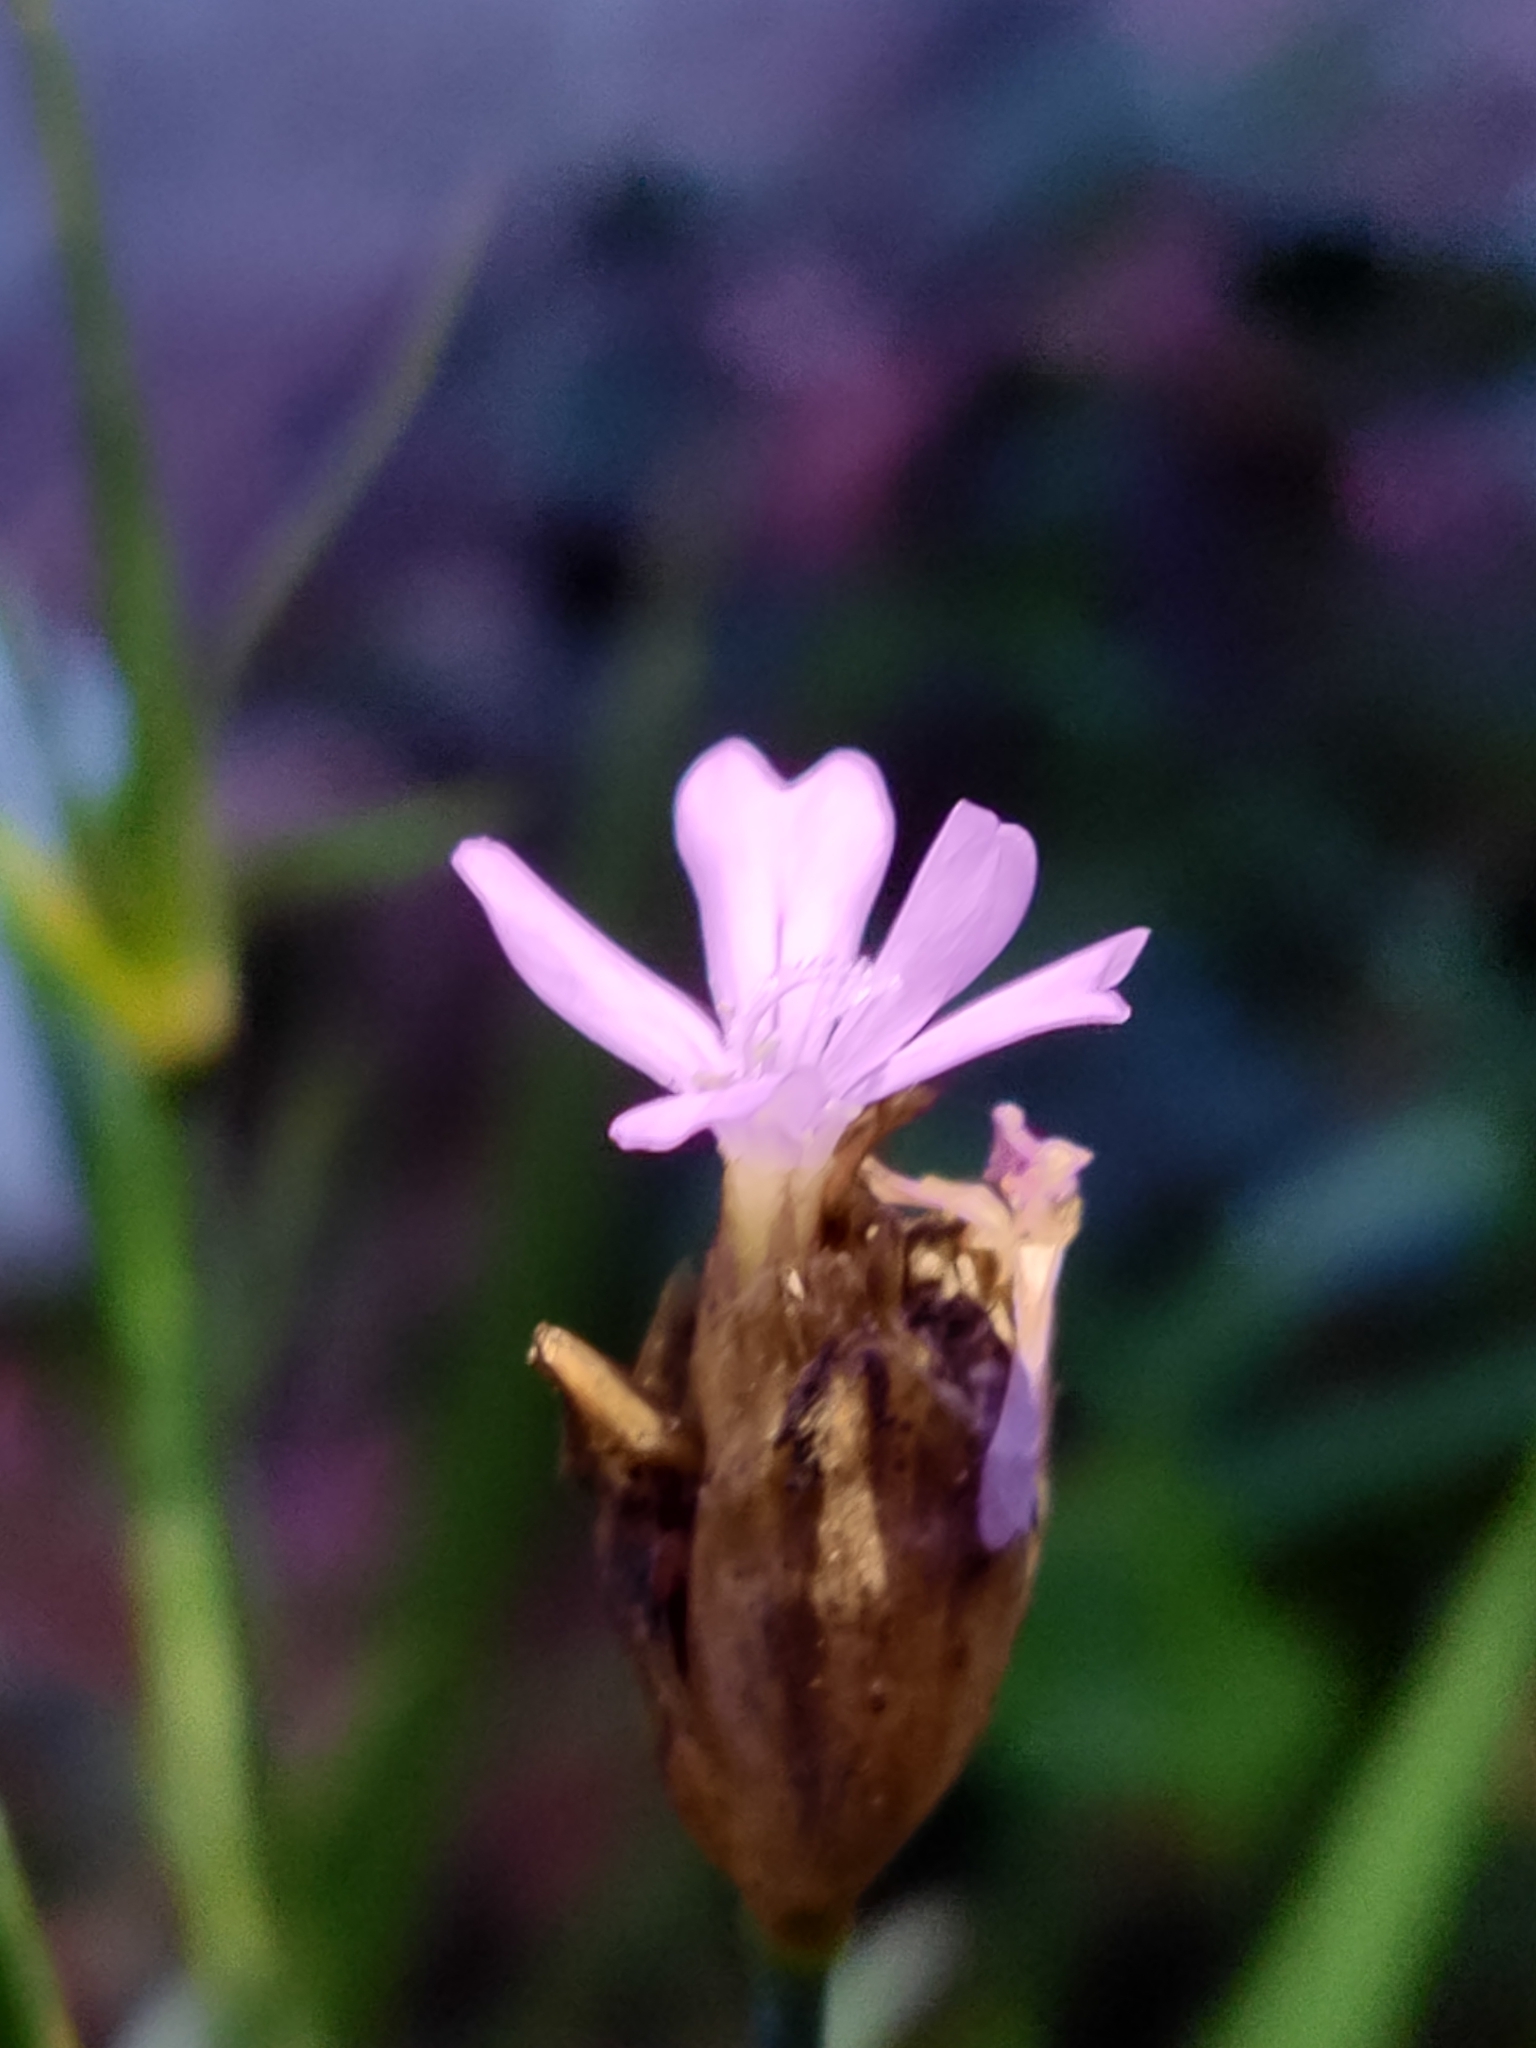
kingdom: Plantae
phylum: Tracheophyta
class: Magnoliopsida
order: Caryophyllales
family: Caryophyllaceae
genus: Petrorhagia
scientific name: Petrorhagia nanteuilii
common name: Proliferous pink
